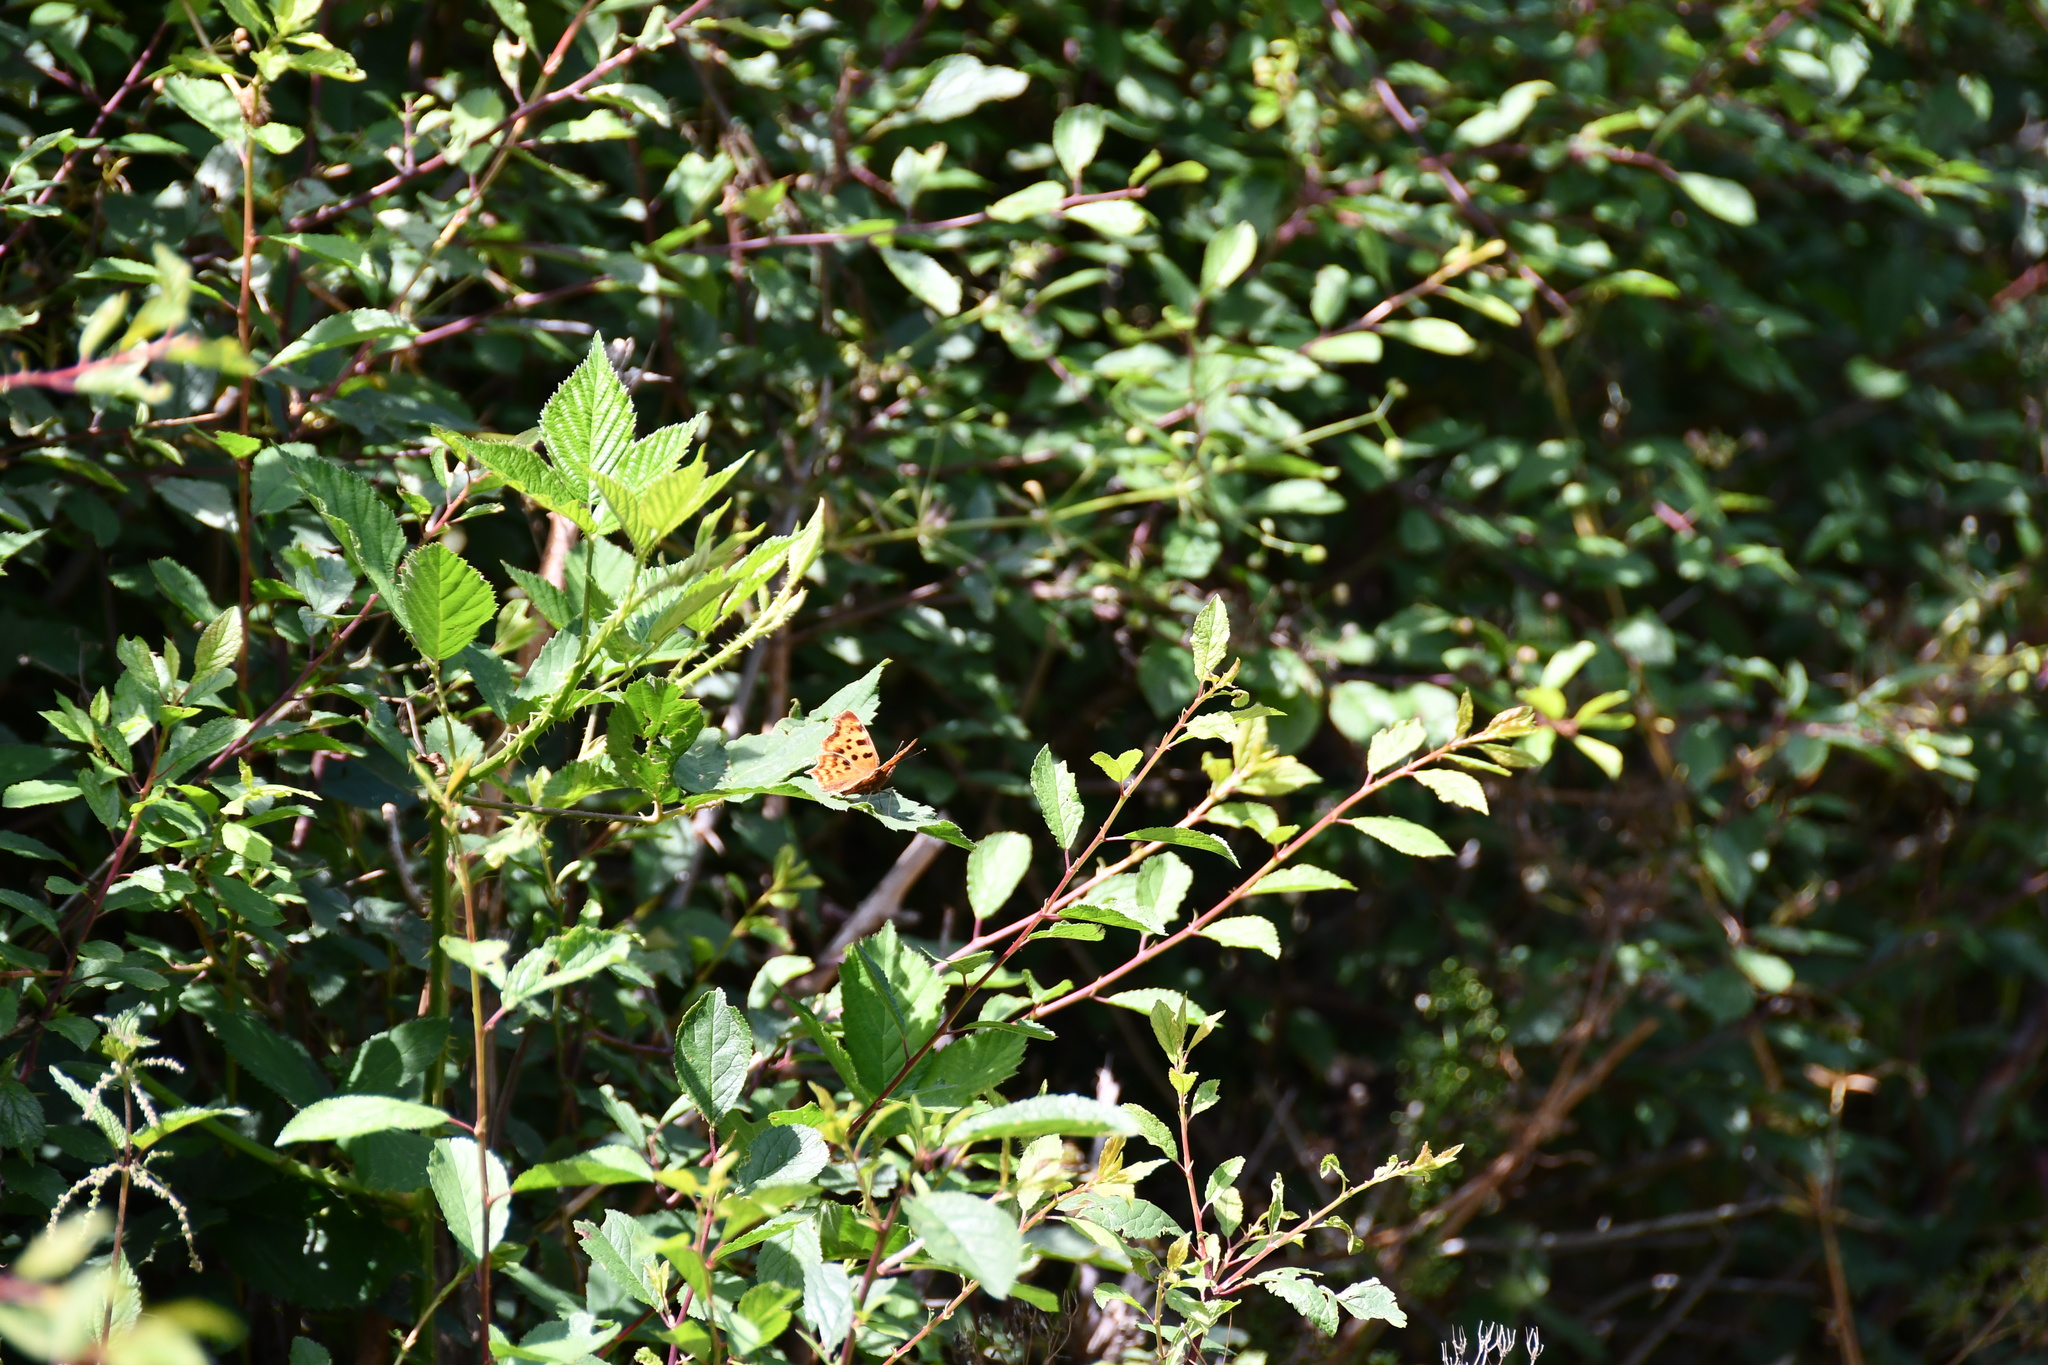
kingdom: Animalia
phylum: Arthropoda
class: Insecta
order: Lepidoptera
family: Nymphalidae
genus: Polygonia
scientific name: Polygonia c-album
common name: Comma
